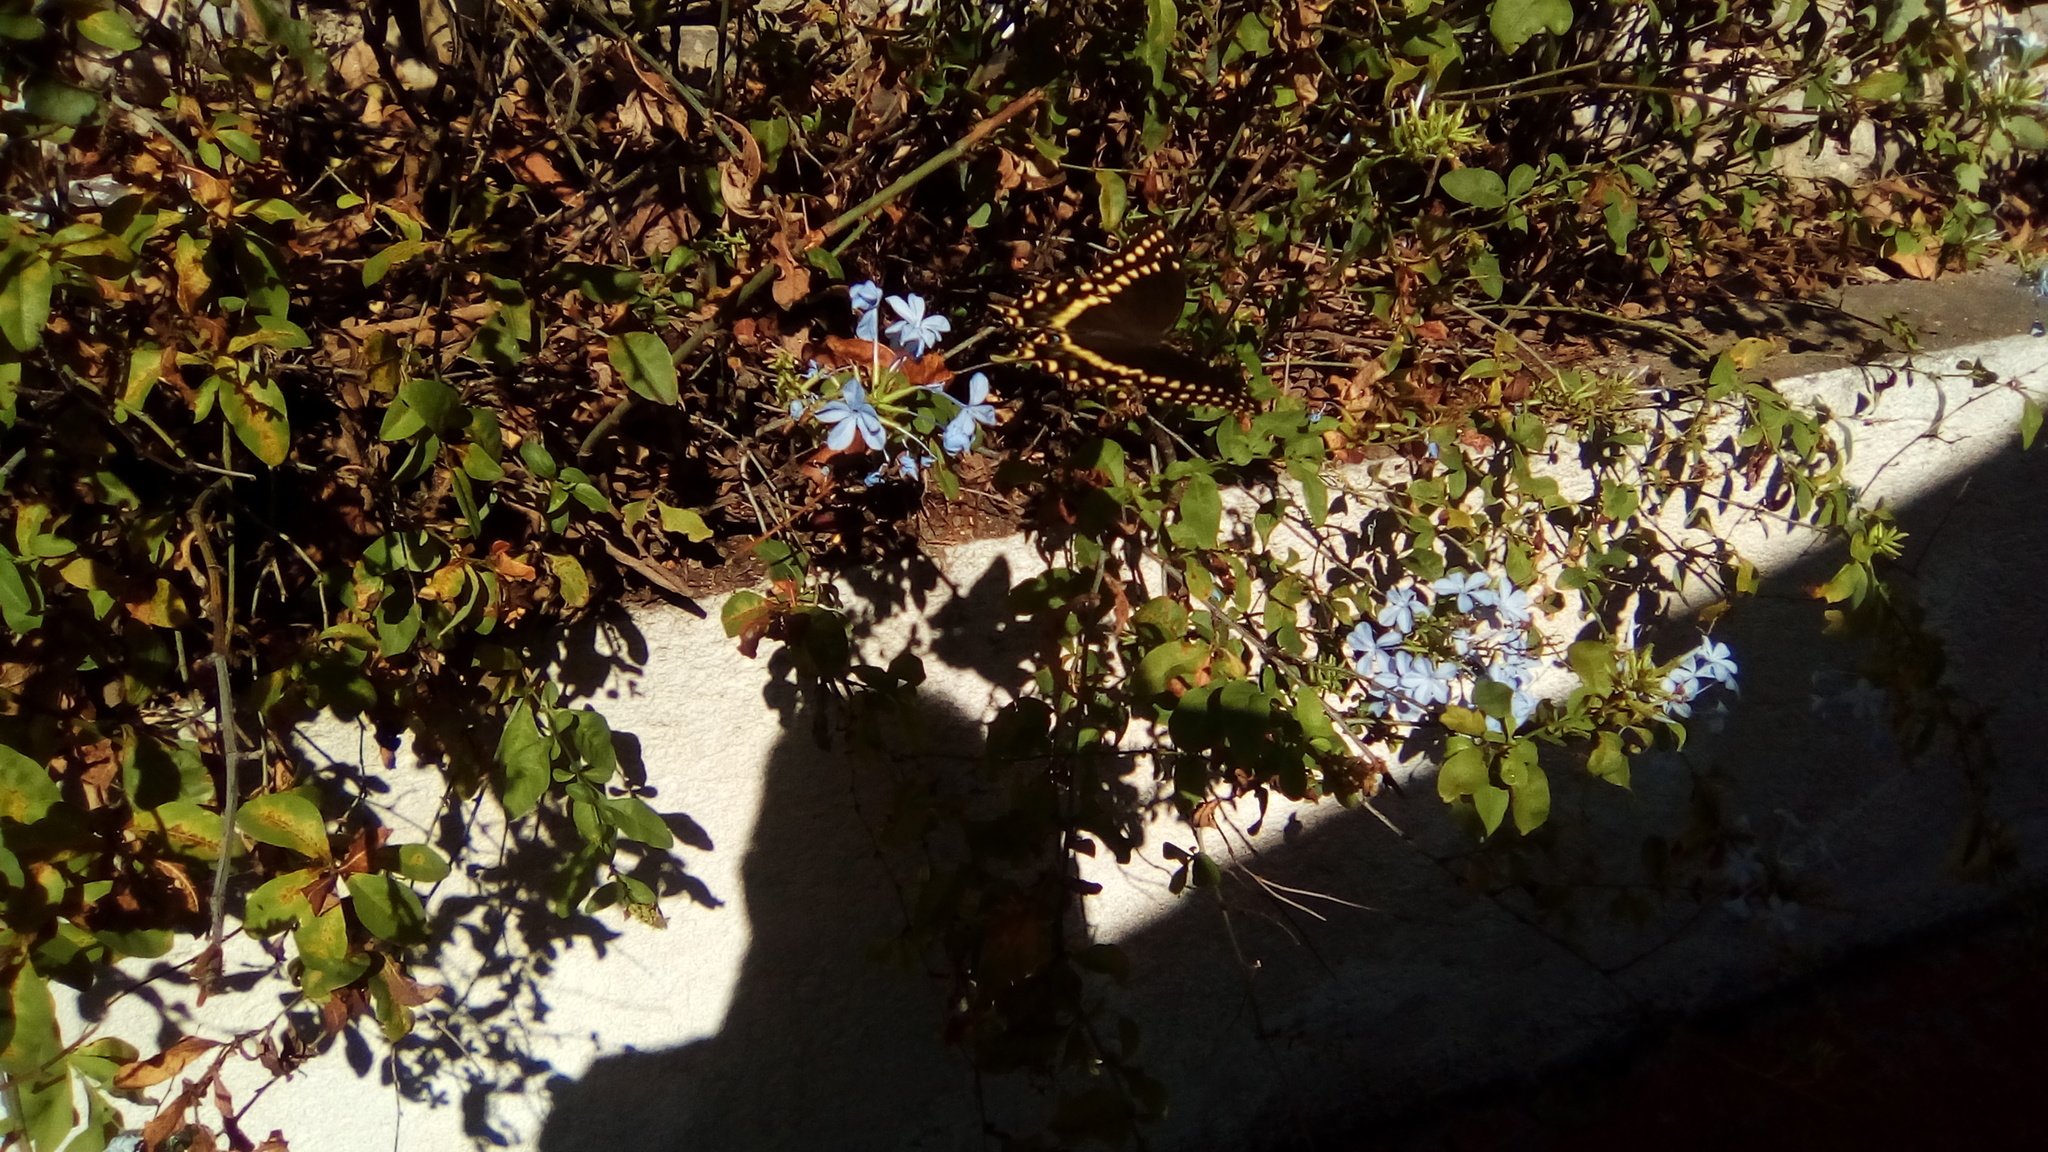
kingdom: Animalia
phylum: Arthropoda
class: Insecta
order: Lepidoptera
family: Papilionidae
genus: Papilio
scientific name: Papilio palamedes
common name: Palamedes swallowtail
